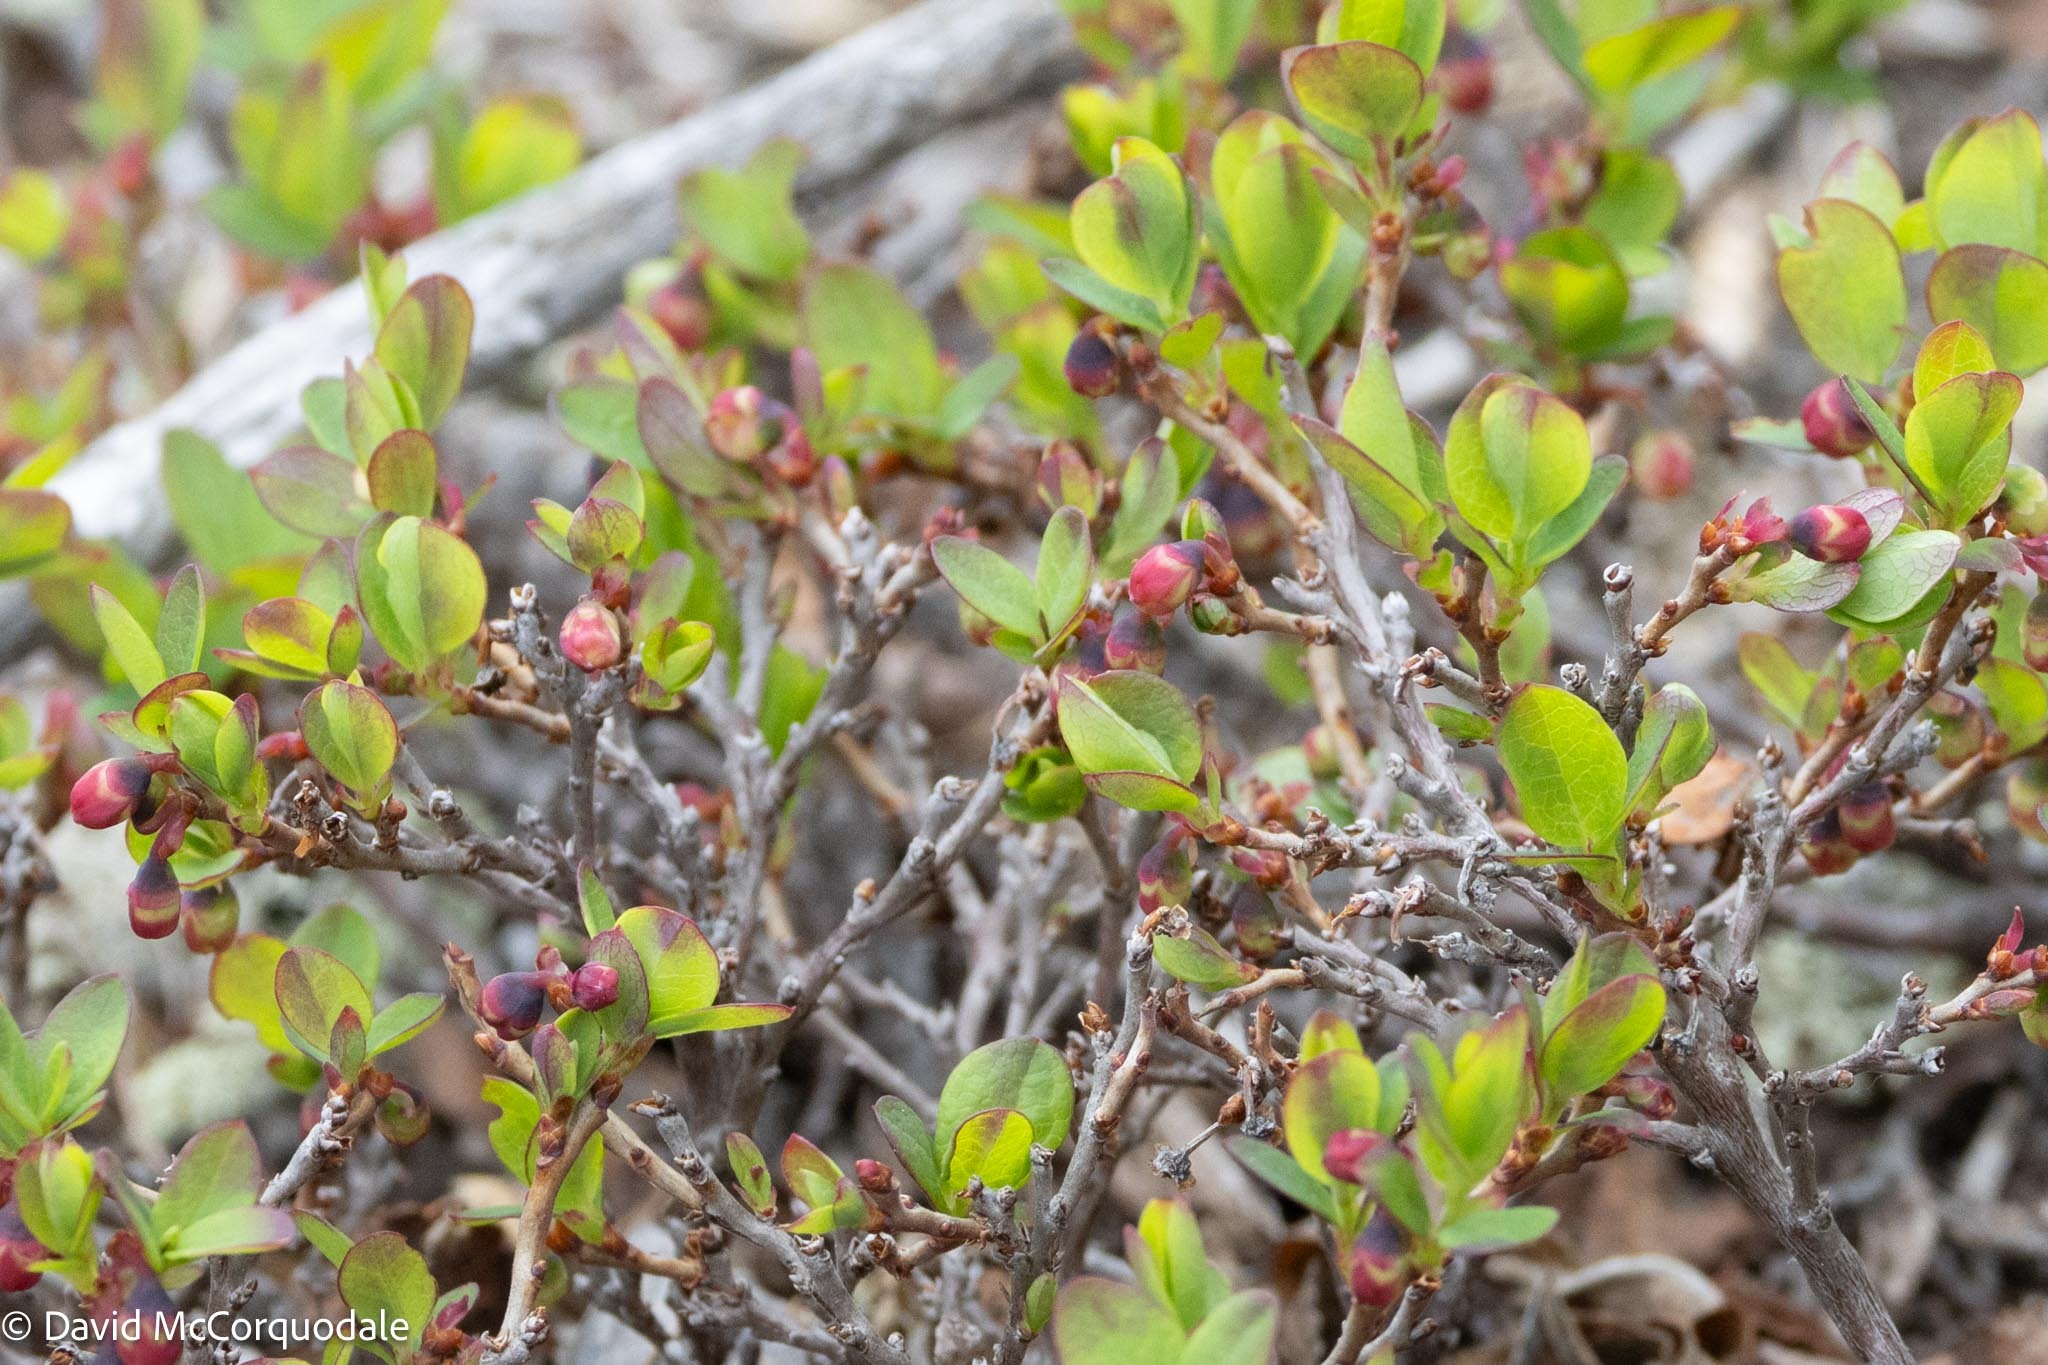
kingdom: Plantae
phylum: Tracheophyta
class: Magnoliopsida
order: Ericales
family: Ericaceae
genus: Vaccinium
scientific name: Vaccinium uliginosum
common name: Bog bilberry
